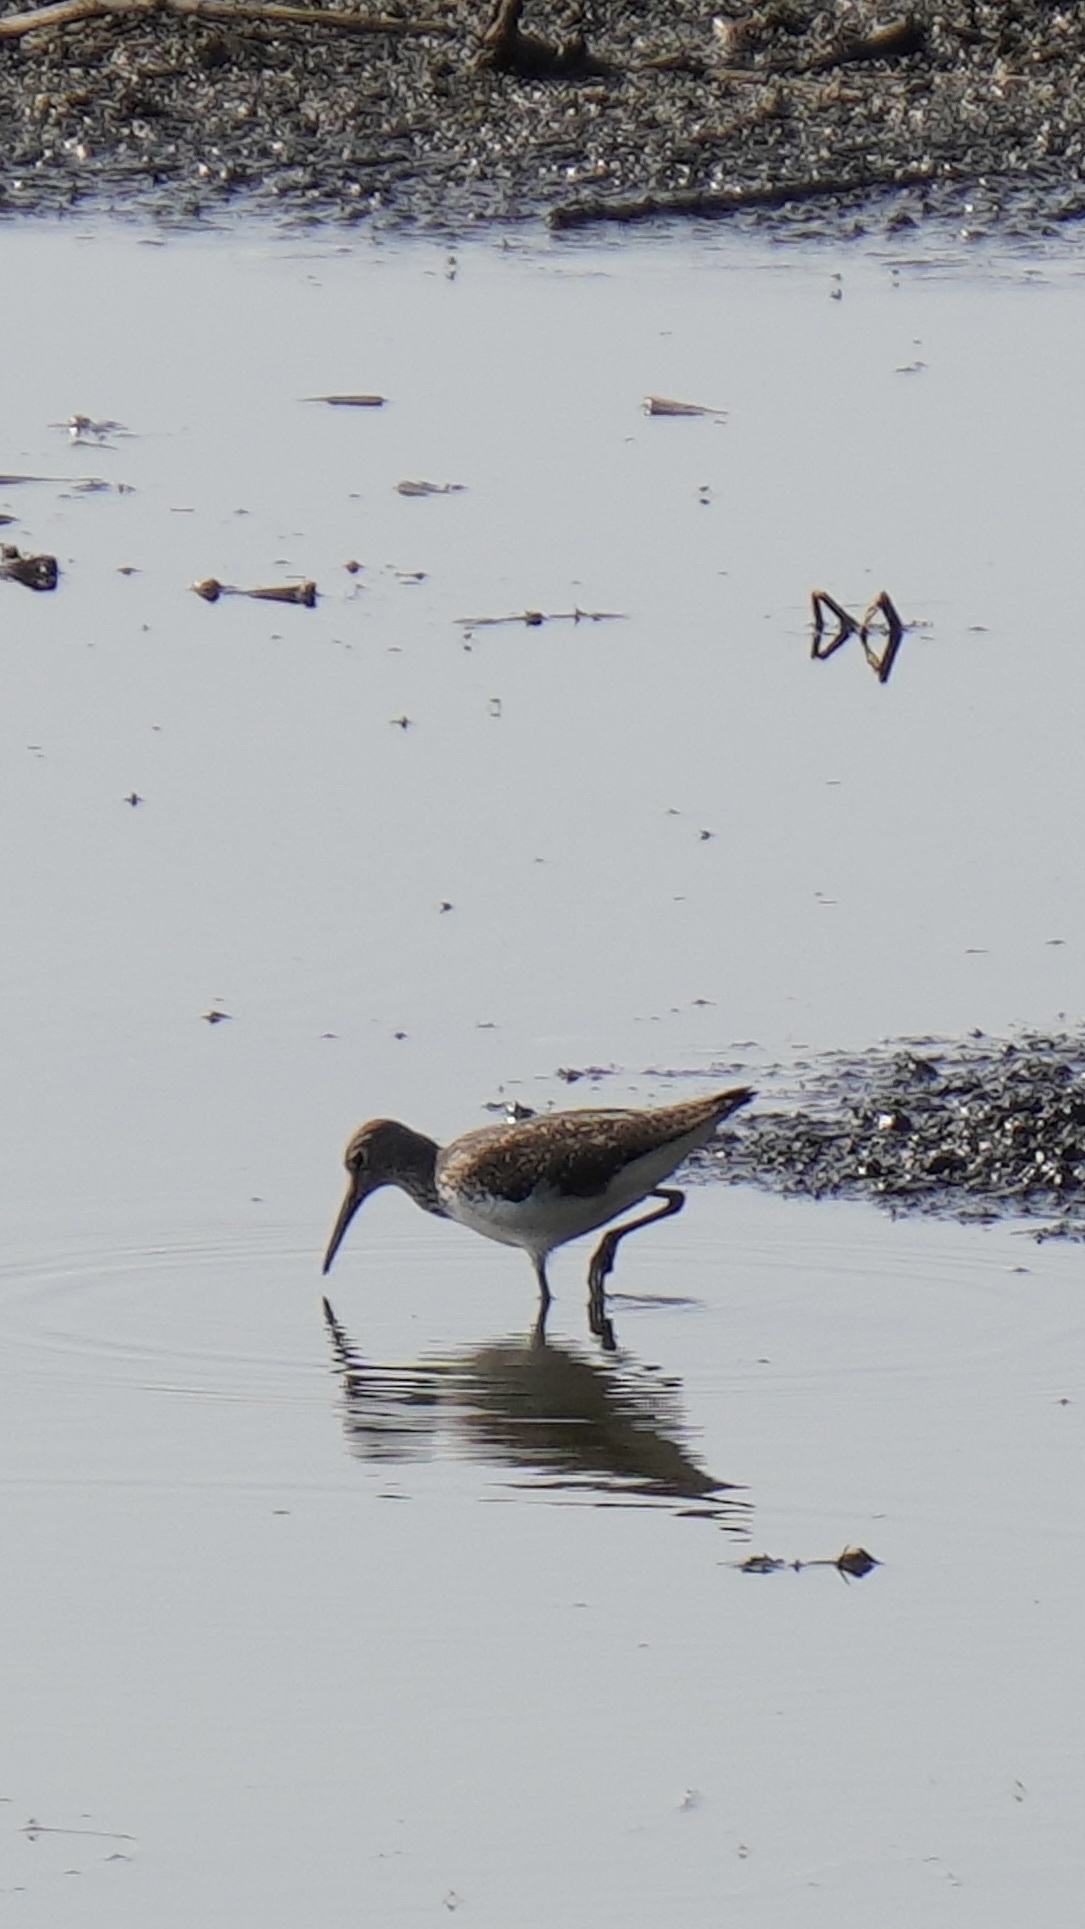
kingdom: Animalia
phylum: Chordata
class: Aves
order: Charadriiformes
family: Scolopacidae
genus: Tringa
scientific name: Tringa ochropus
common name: Green sandpiper
